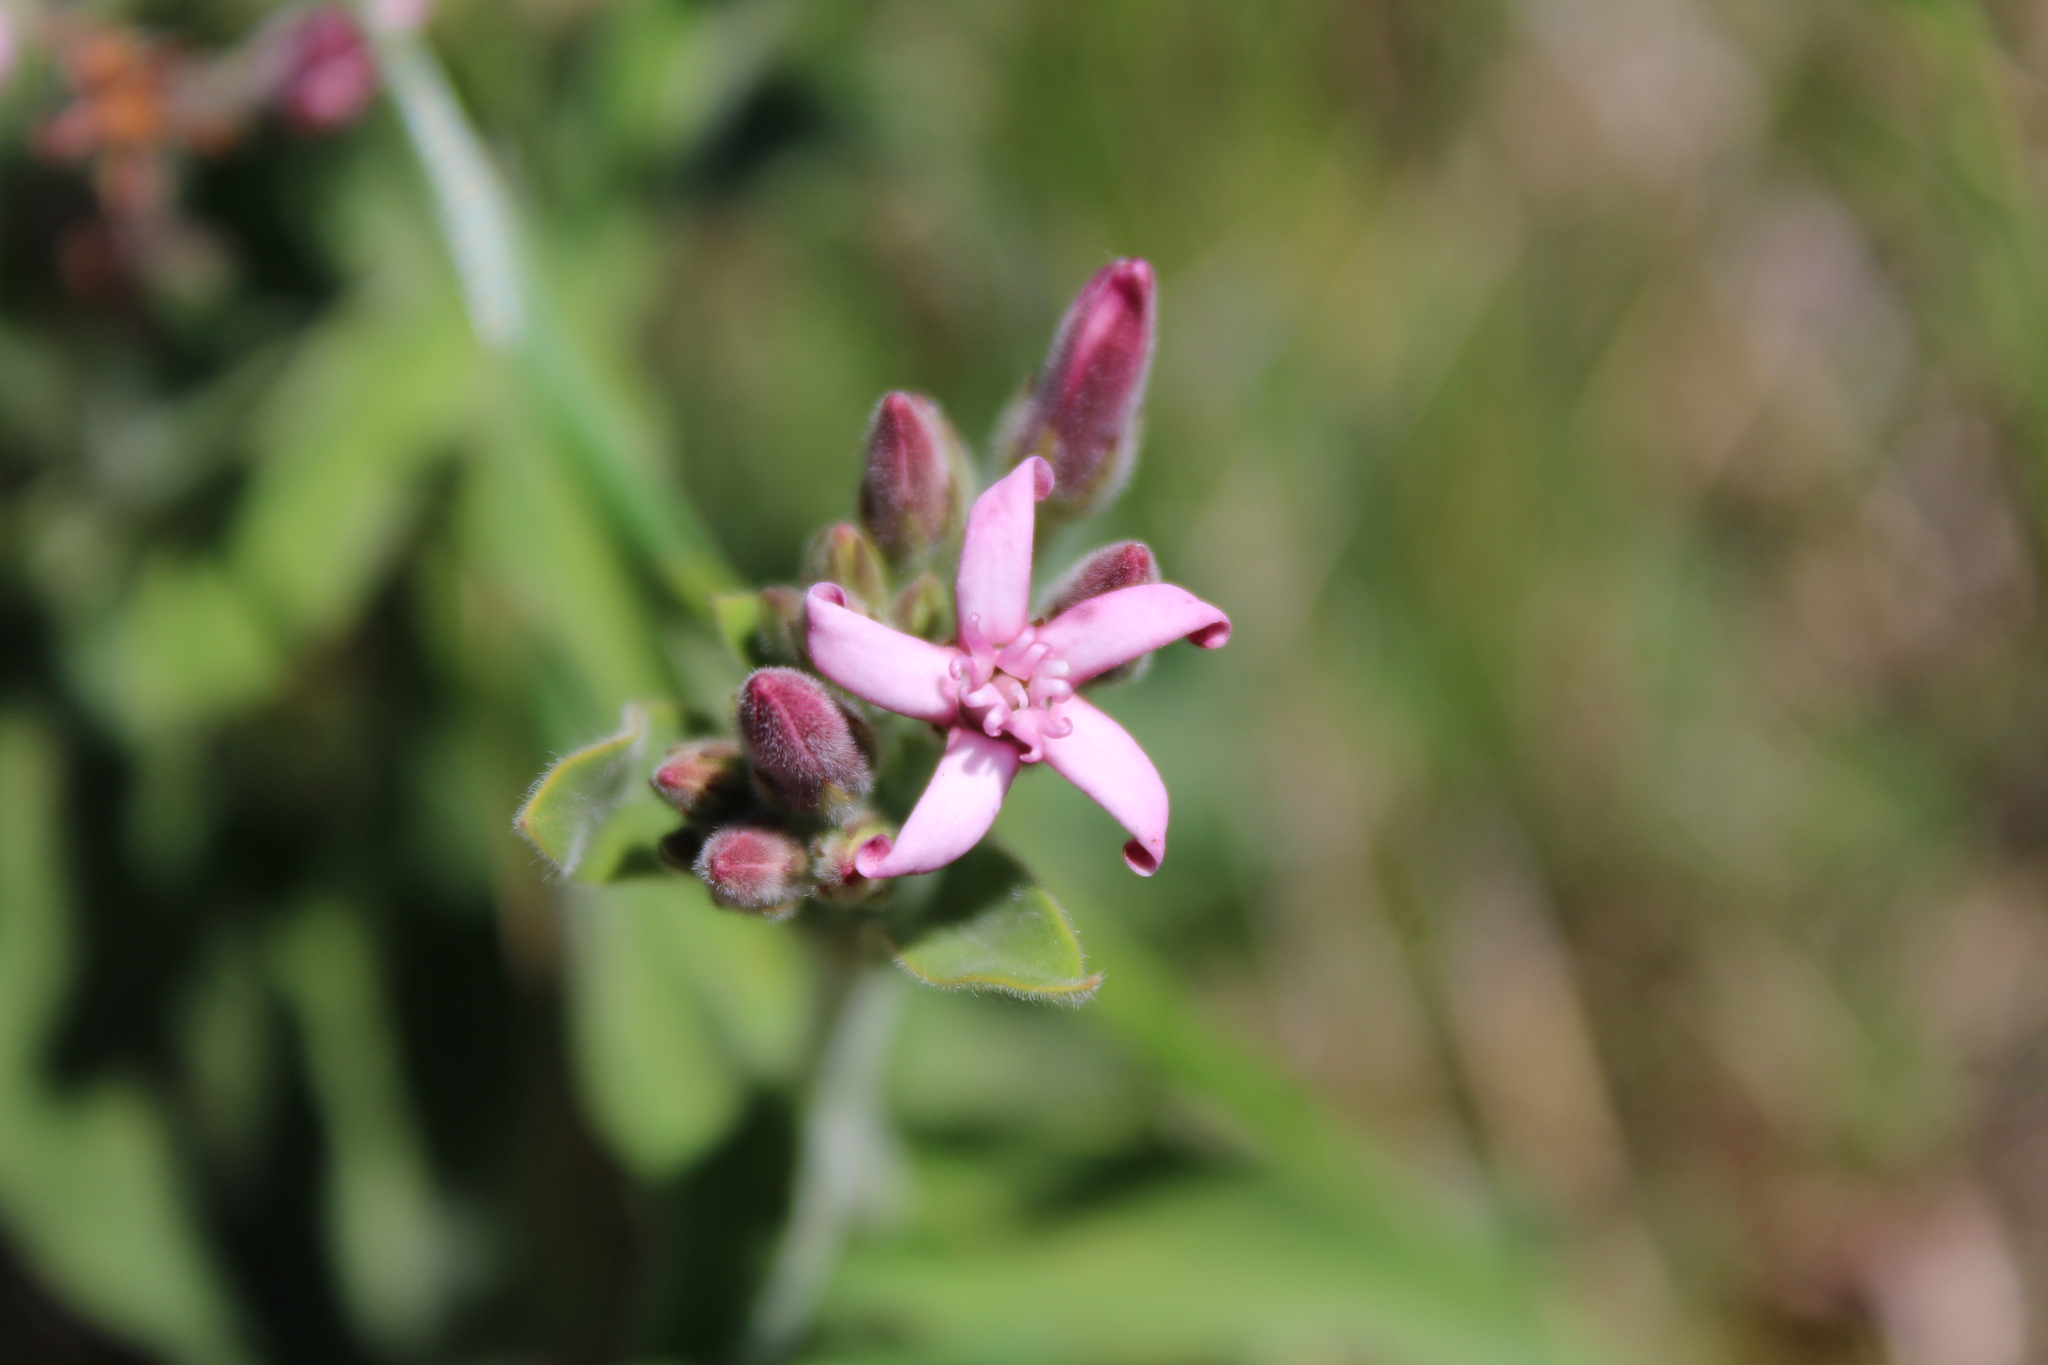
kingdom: Plantae
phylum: Tracheophyta
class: Magnoliopsida
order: Gentianales
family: Apocynaceae
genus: Oxypetalum
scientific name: Oxypetalum solanoides
